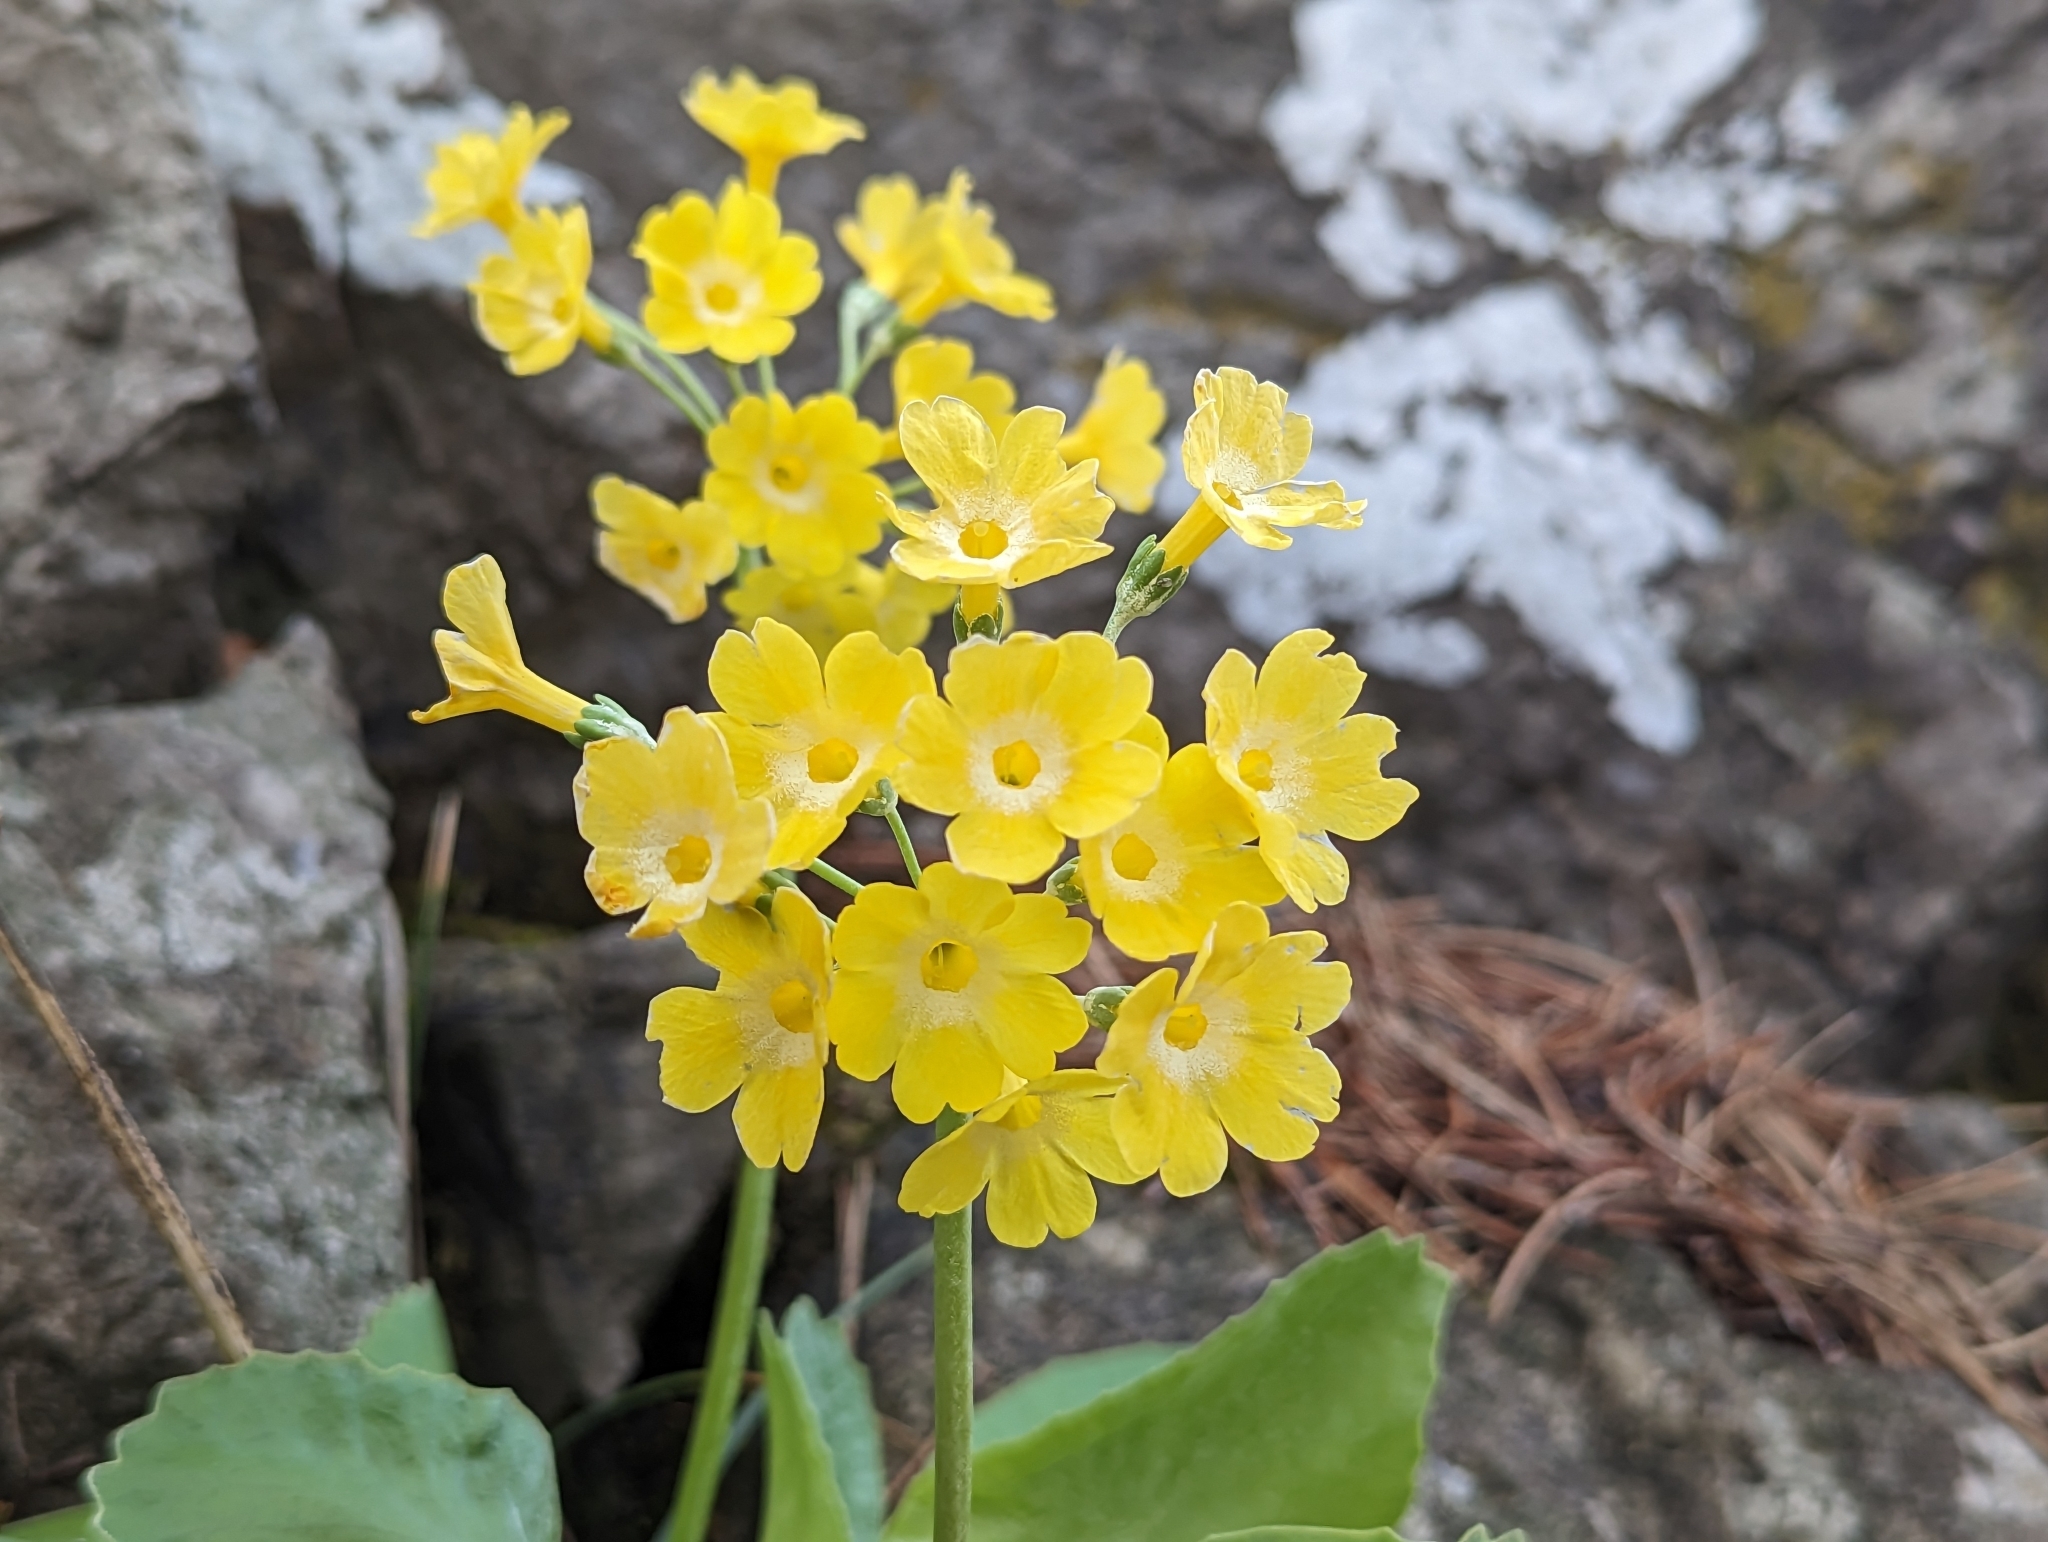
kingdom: Plantae
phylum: Tracheophyta
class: Magnoliopsida
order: Ericales
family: Primulaceae
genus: Primula
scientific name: Primula auricula
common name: Auricula
